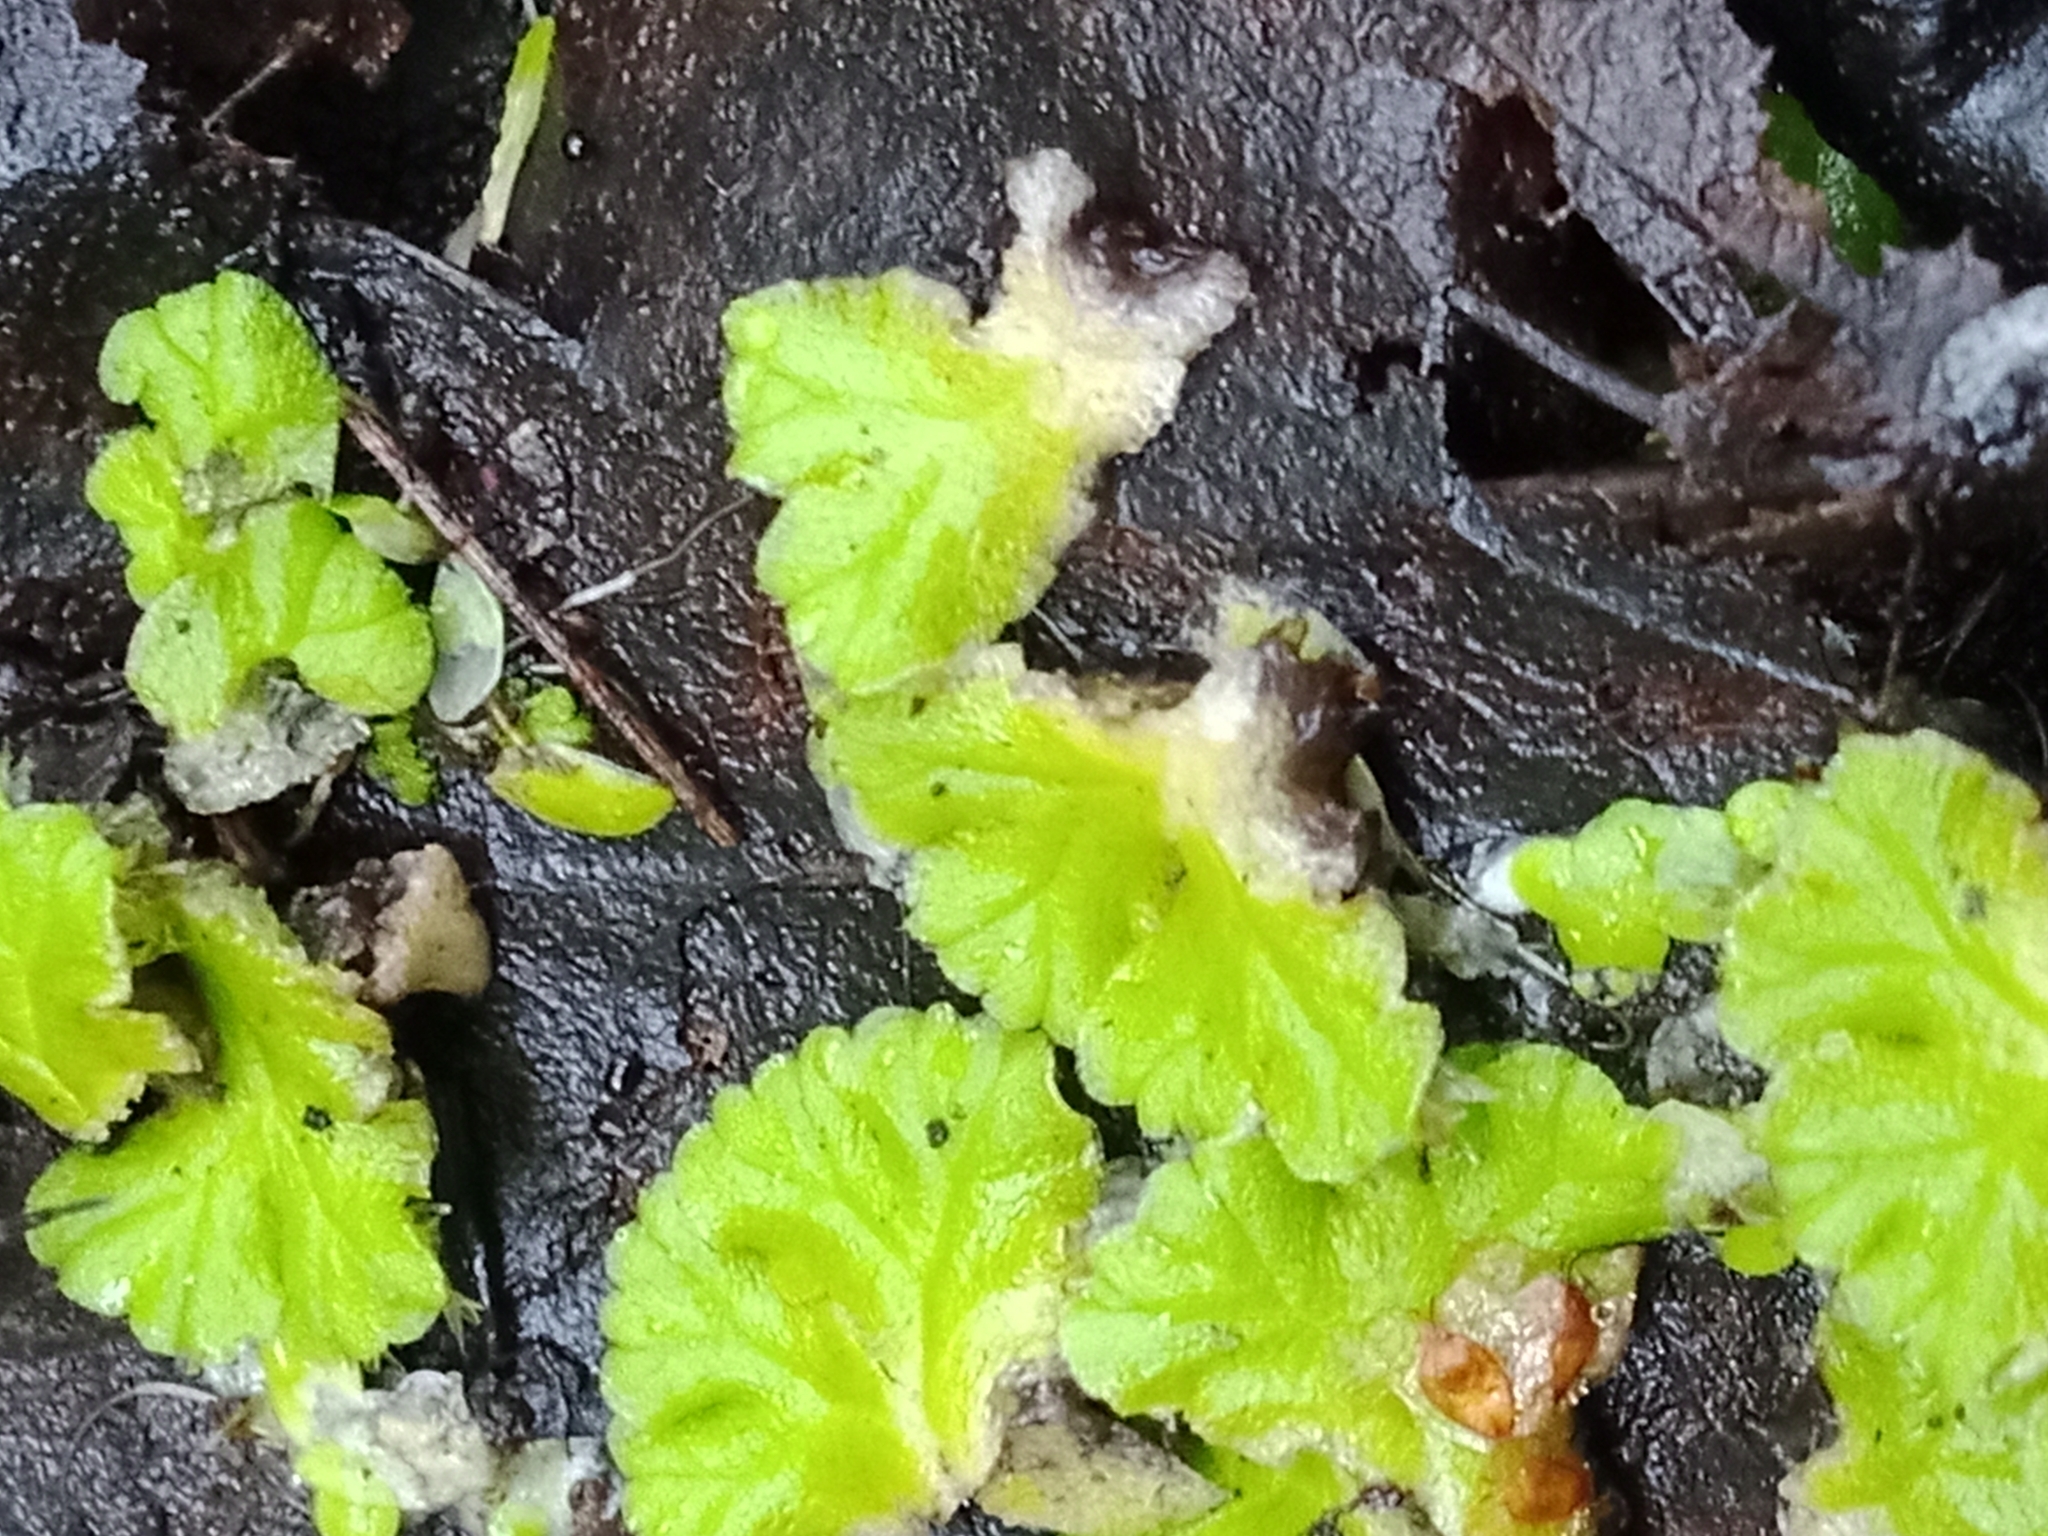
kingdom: Plantae
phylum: Marchantiophyta
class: Marchantiopsida
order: Marchantiales
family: Ricciaceae
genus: Ricciocarpos
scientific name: Ricciocarpos natans
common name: Purple-fringed liverwort
